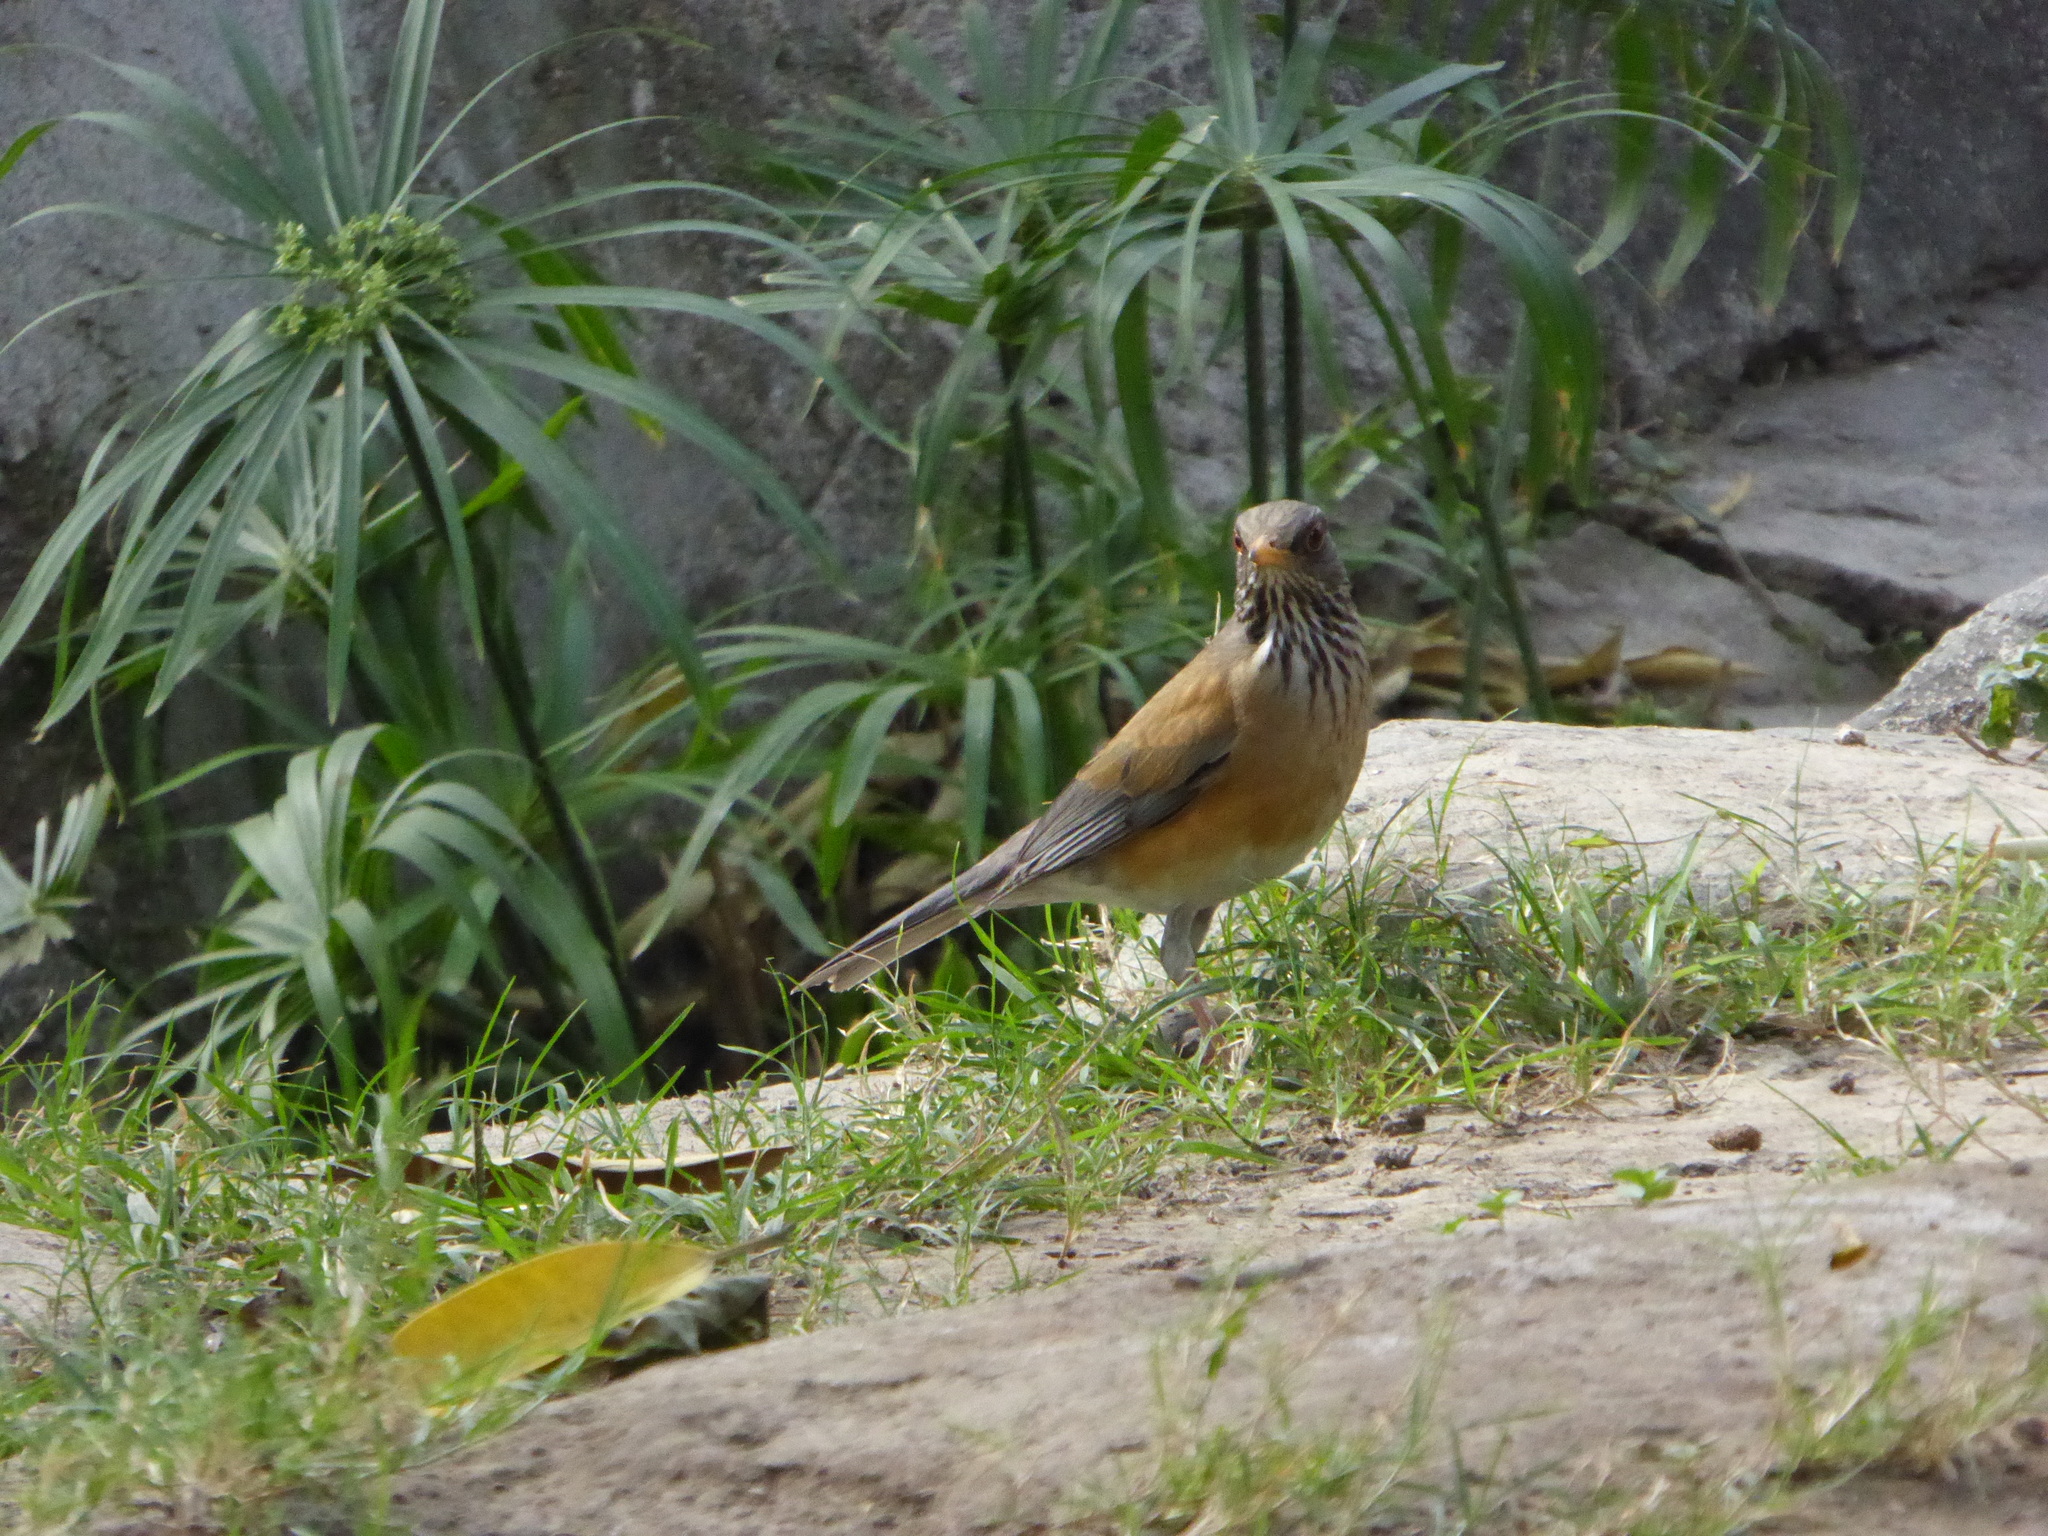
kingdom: Animalia
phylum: Chordata
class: Aves
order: Passeriformes
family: Turdidae
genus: Turdus
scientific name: Turdus rufopalliatus
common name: Rufous-backed robin
